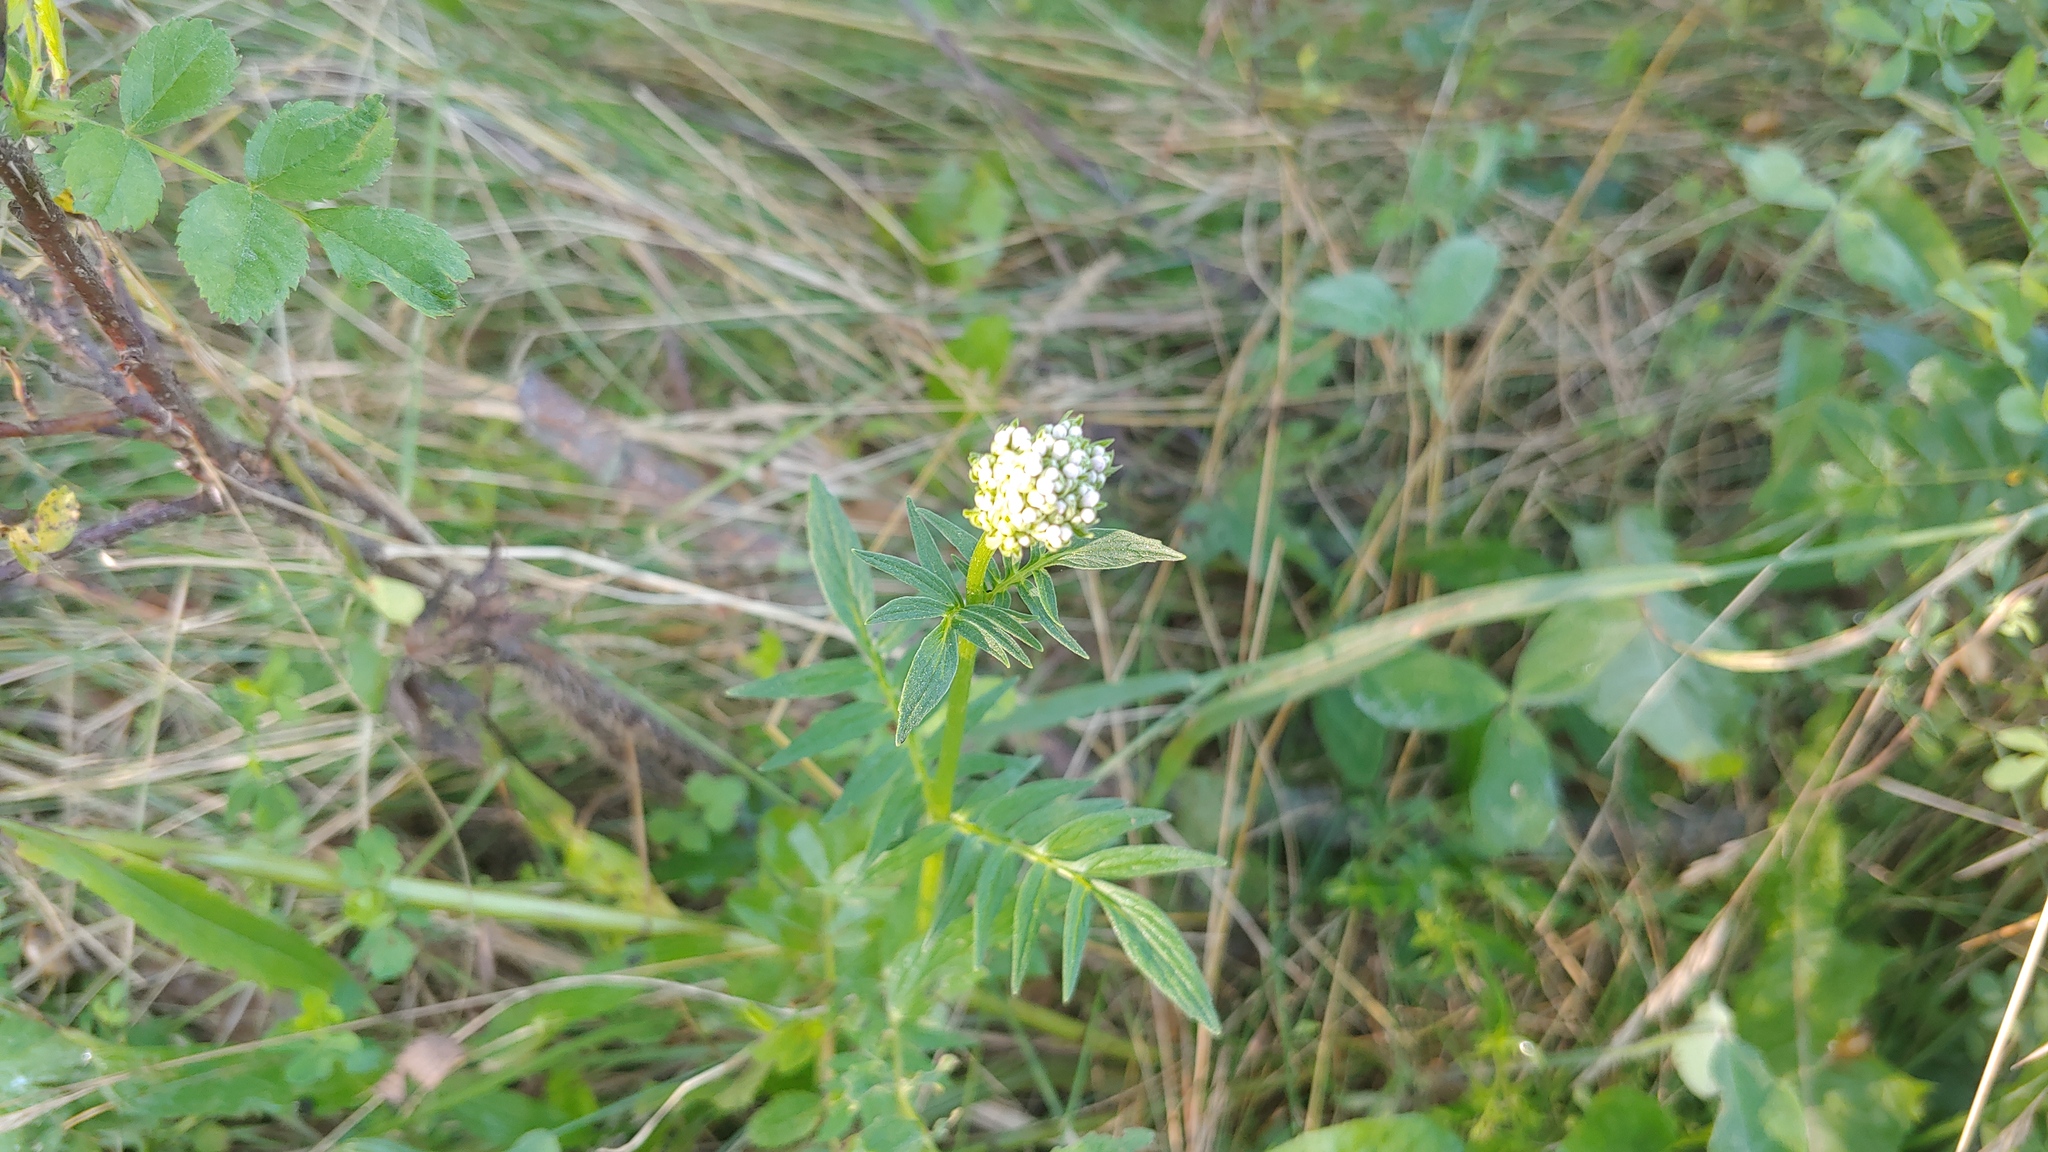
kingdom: Plantae
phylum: Tracheophyta
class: Magnoliopsida
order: Dipsacales
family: Caprifoliaceae
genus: Valeriana
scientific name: Valeriana officinalis
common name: Common valerian
